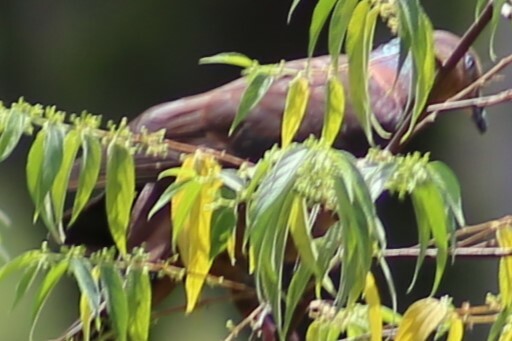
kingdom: Animalia
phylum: Chordata
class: Aves
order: Columbiformes
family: Columbidae
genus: Macropygia
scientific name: Macropygia phasianella
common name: Brown cuckoo-dove
